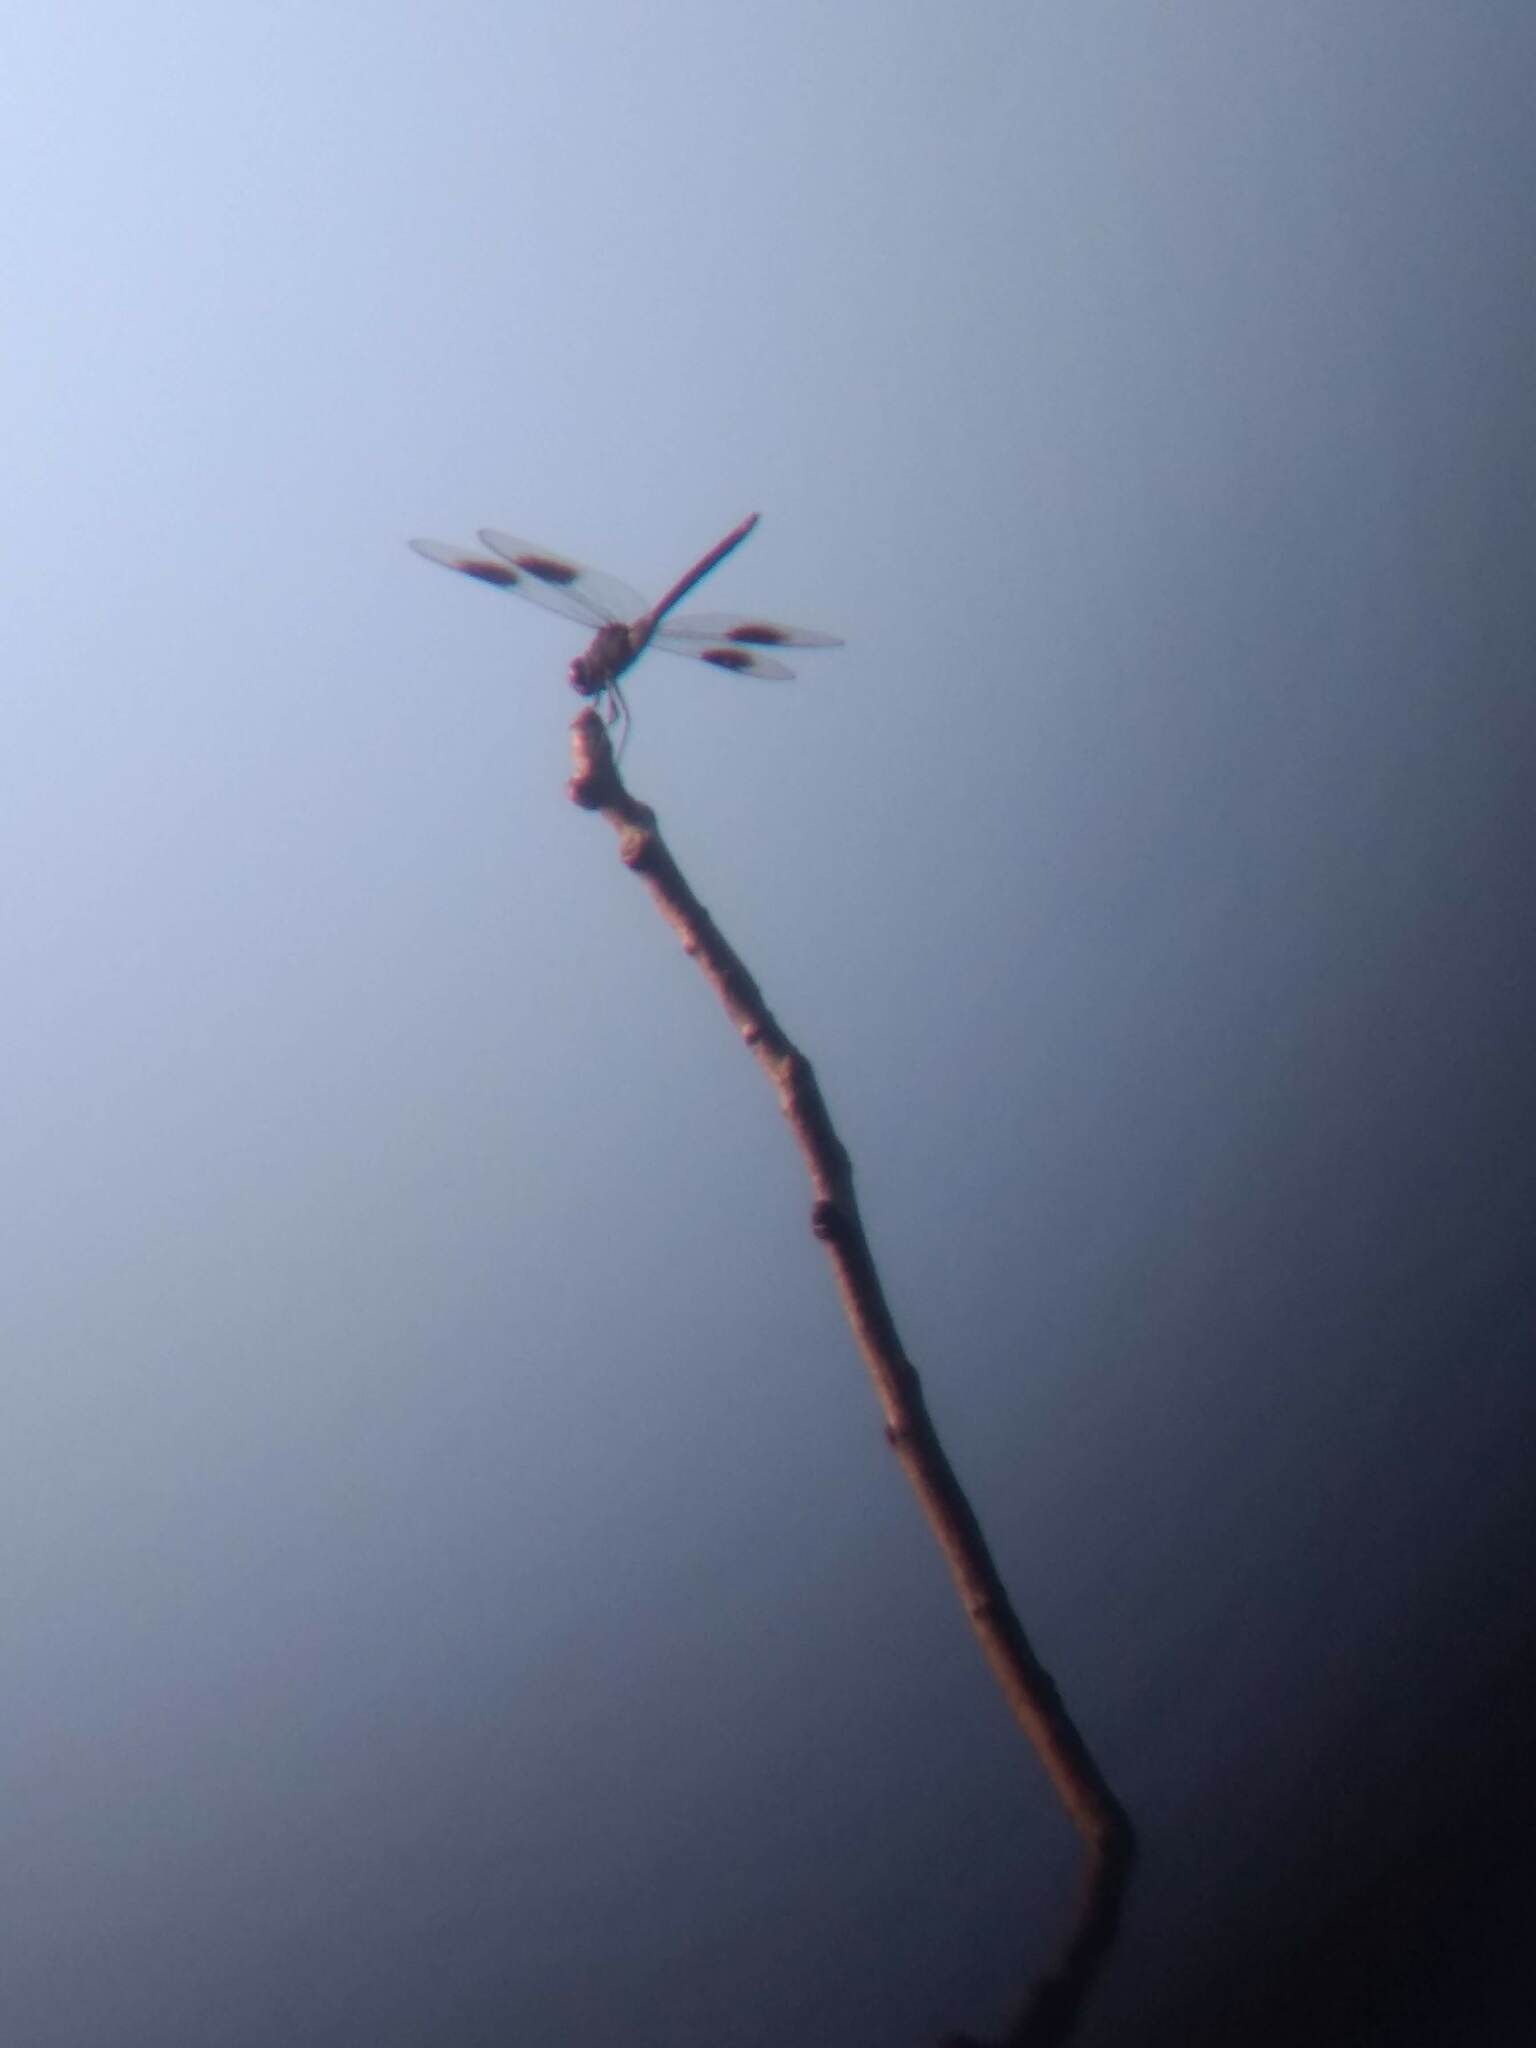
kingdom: Animalia
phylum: Arthropoda
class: Insecta
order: Odonata
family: Libellulidae
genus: Brachymesia
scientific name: Brachymesia gravida
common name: Four-spotted pennant
